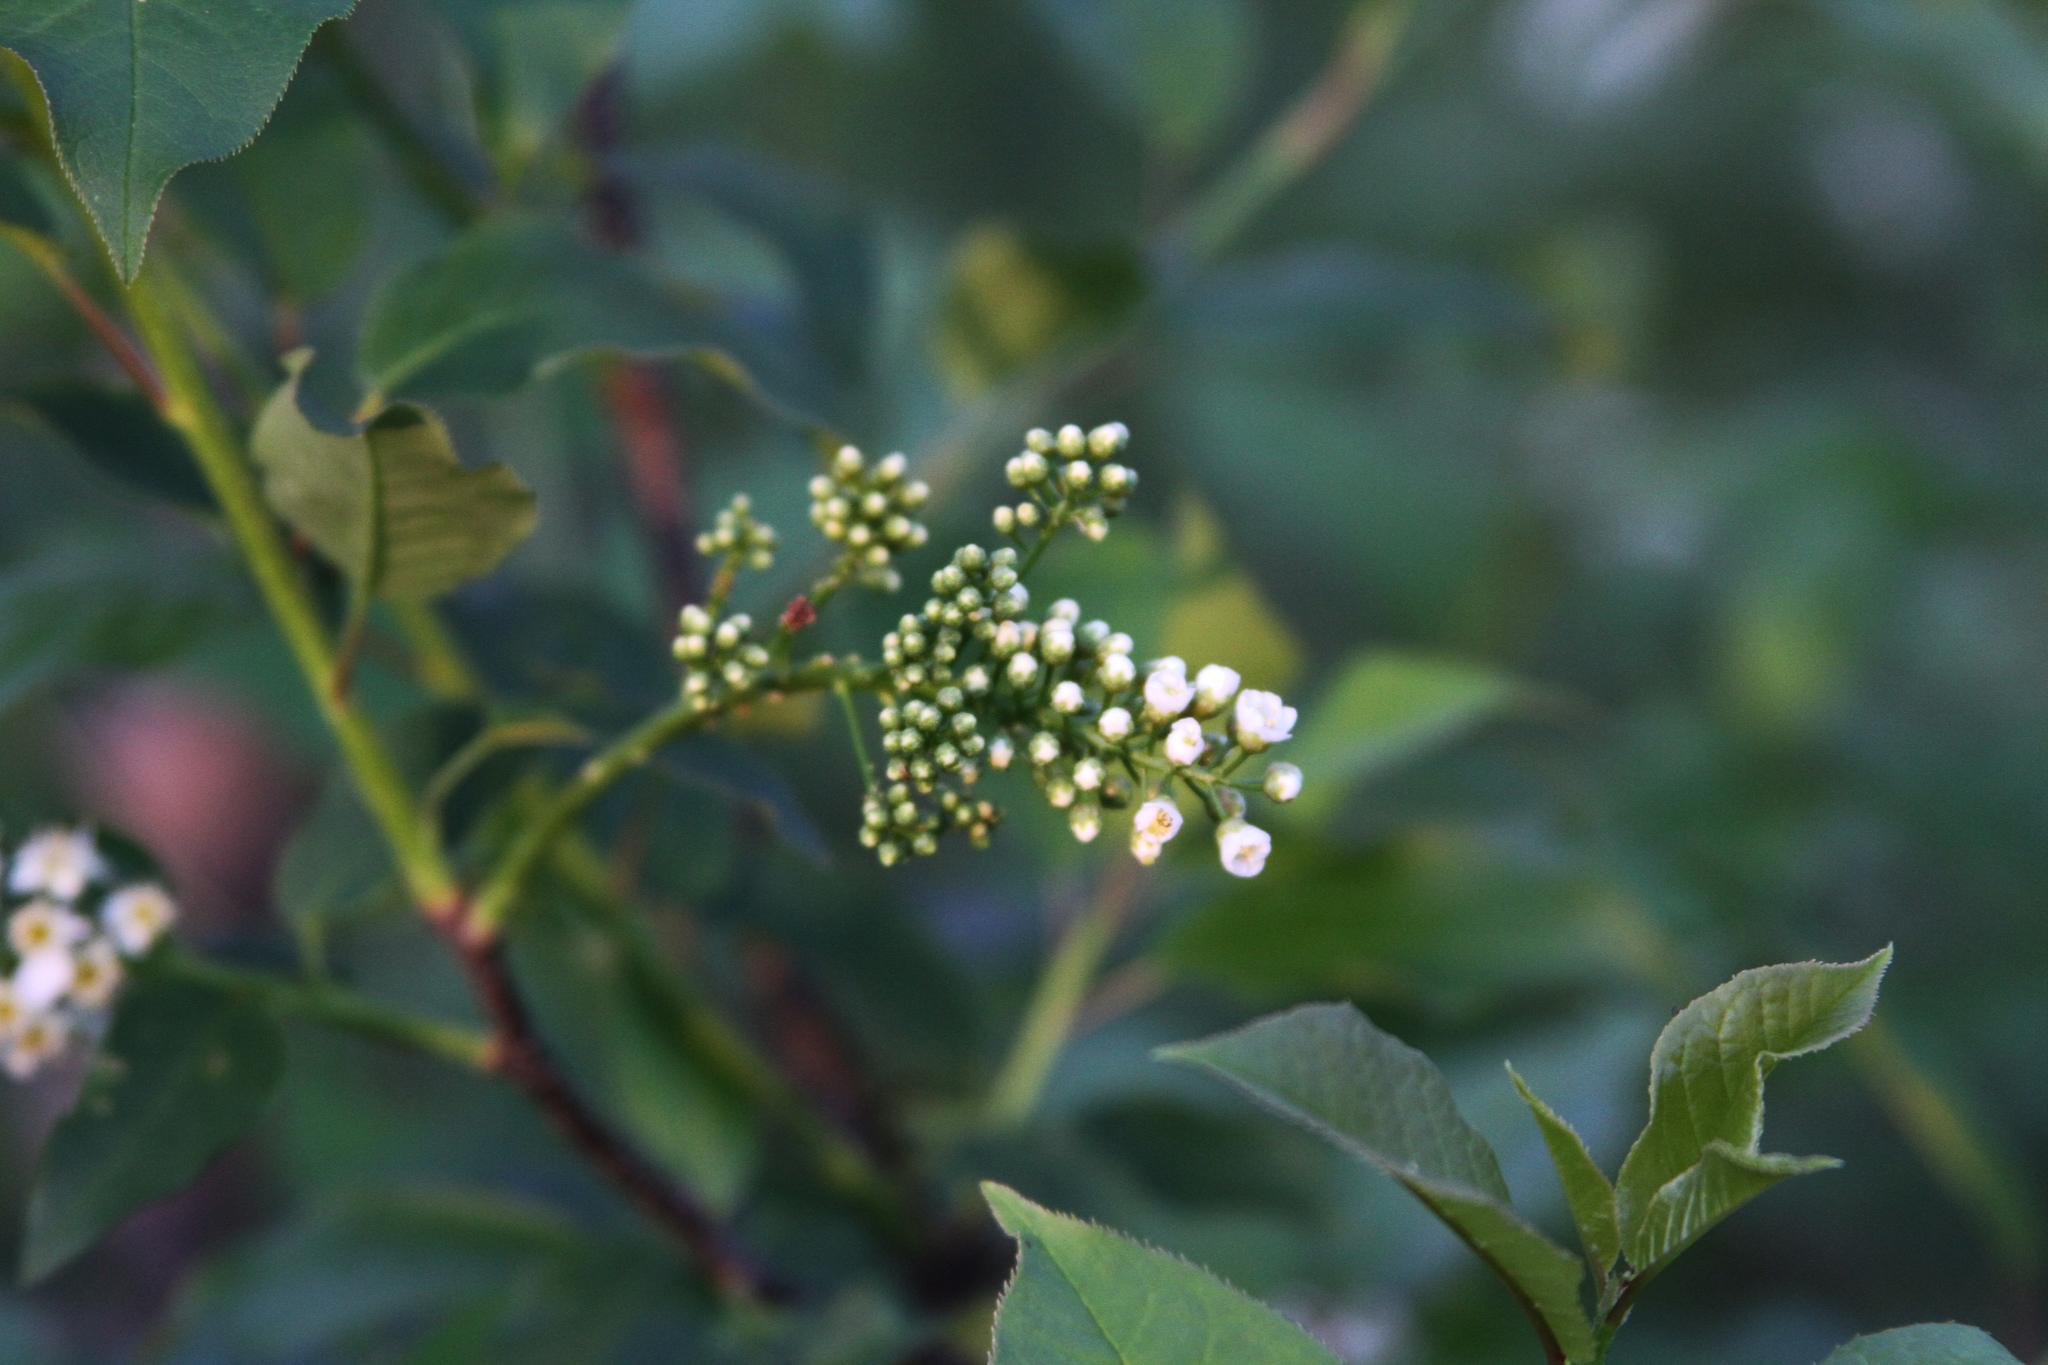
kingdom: Plantae
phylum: Tracheophyta
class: Magnoliopsida
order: Rosales
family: Rosaceae
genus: Prunus
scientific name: Prunus virginiana
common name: Chokecherry
